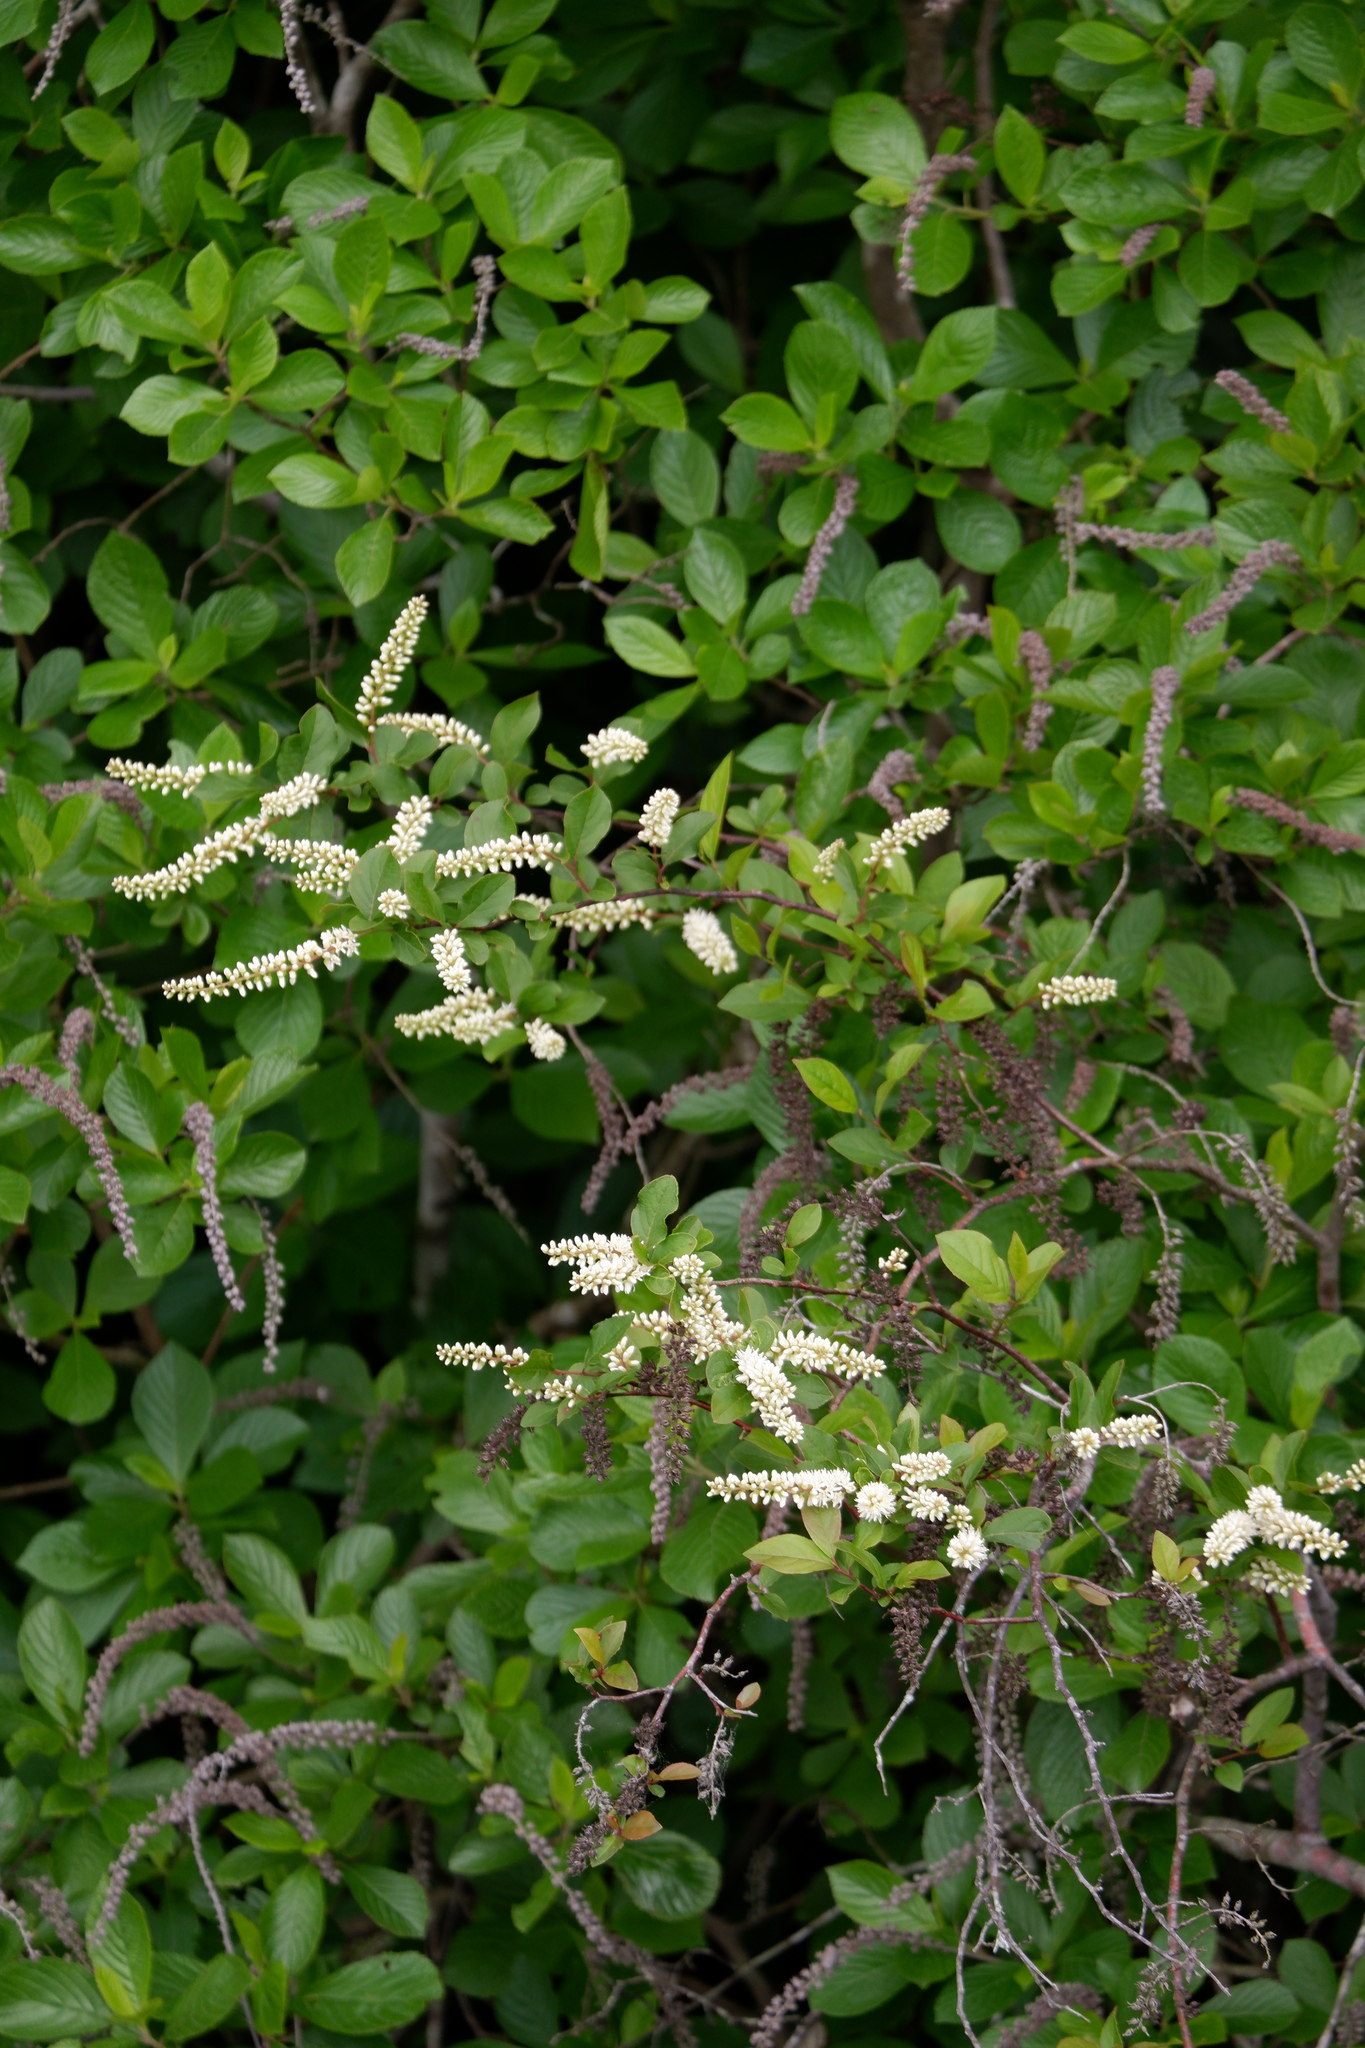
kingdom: Plantae
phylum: Tracheophyta
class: Magnoliopsida
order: Saxifragales
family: Iteaceae
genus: Itea
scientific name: Itea virginica
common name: Sweetspire
